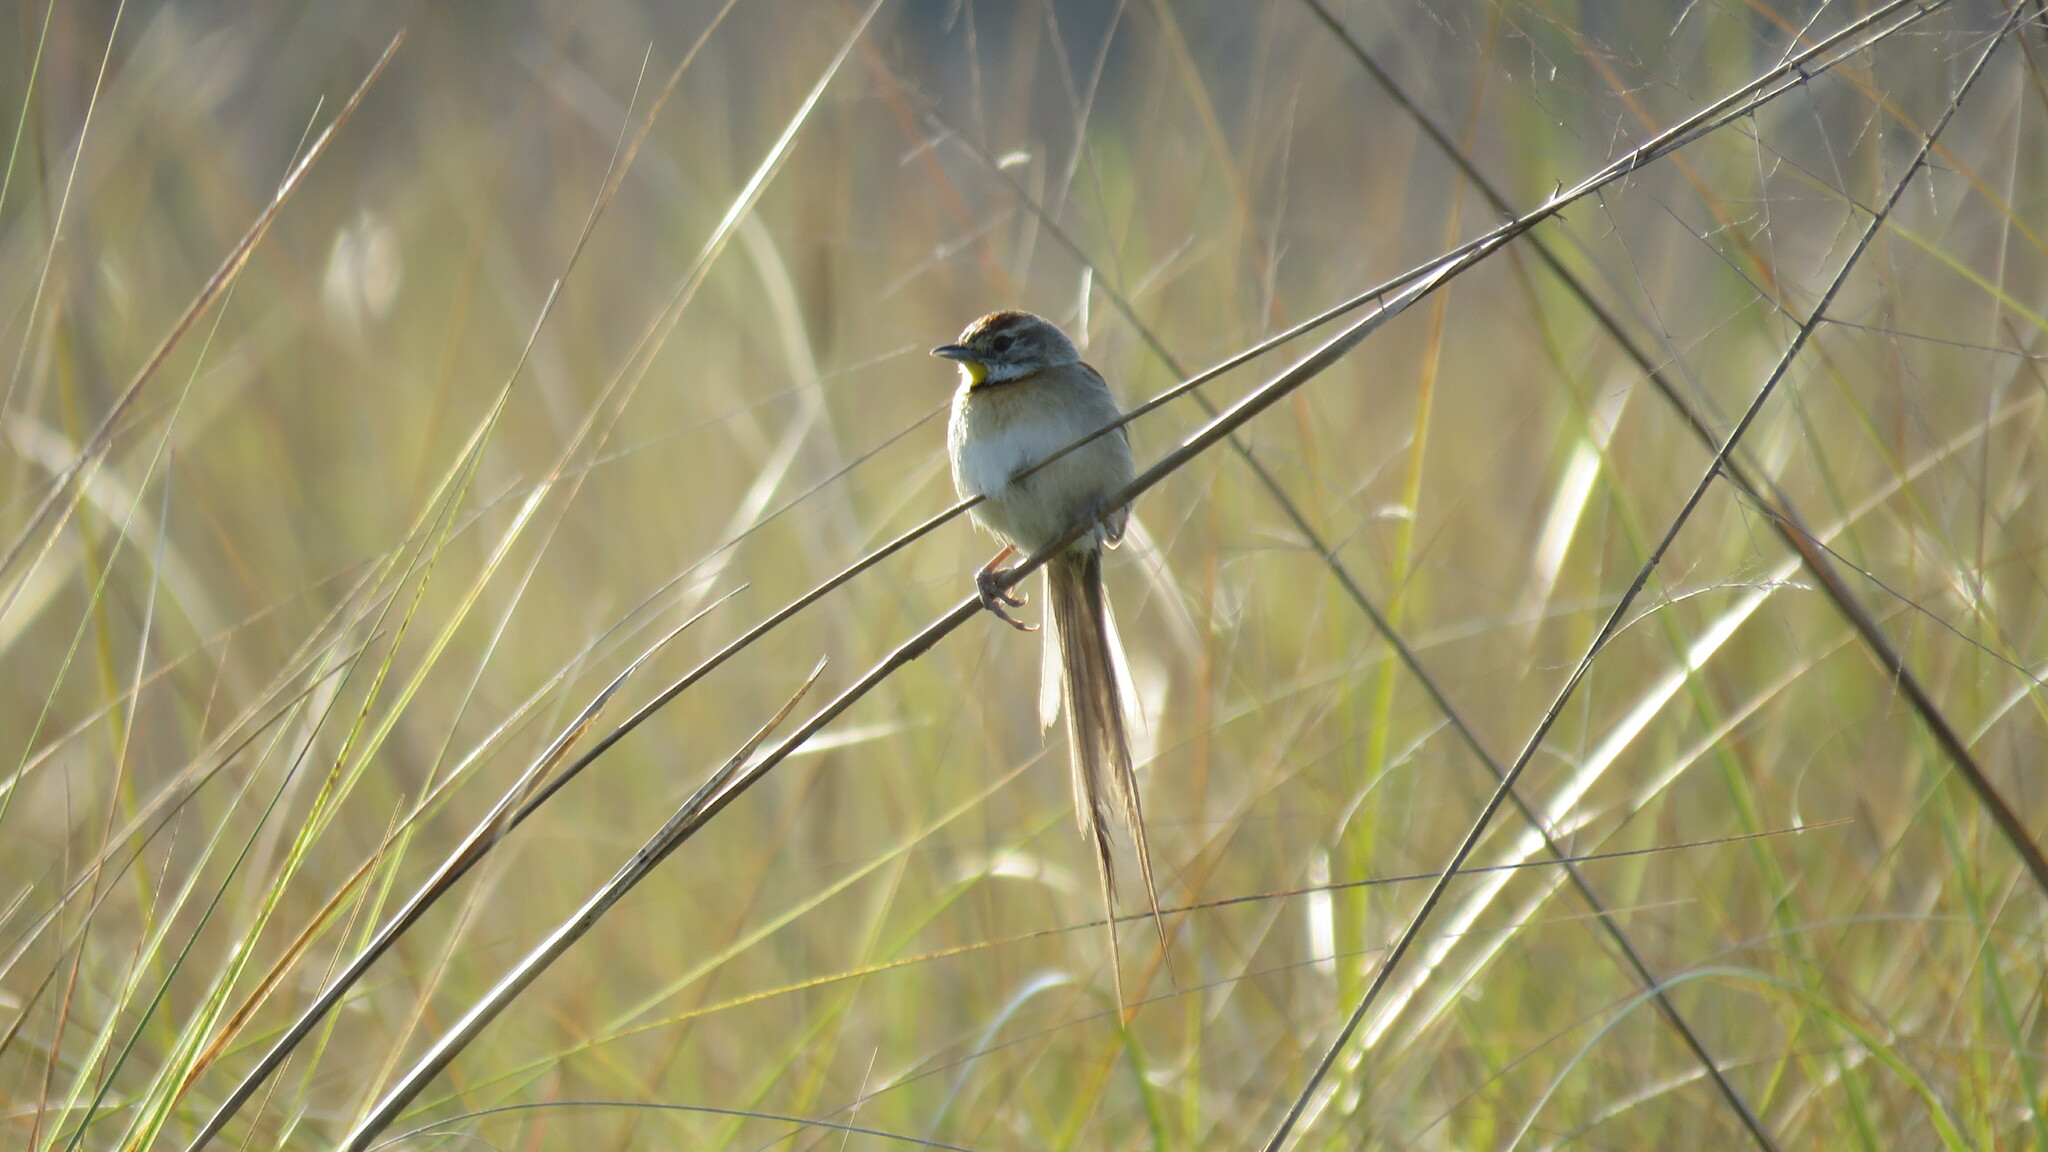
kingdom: Animalia
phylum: Chordata
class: Aves
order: Passeriformes
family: Furnariidae
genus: Schoeniophylax
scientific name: Schoeniophylax phryganophilus
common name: Chotoy spinetail
